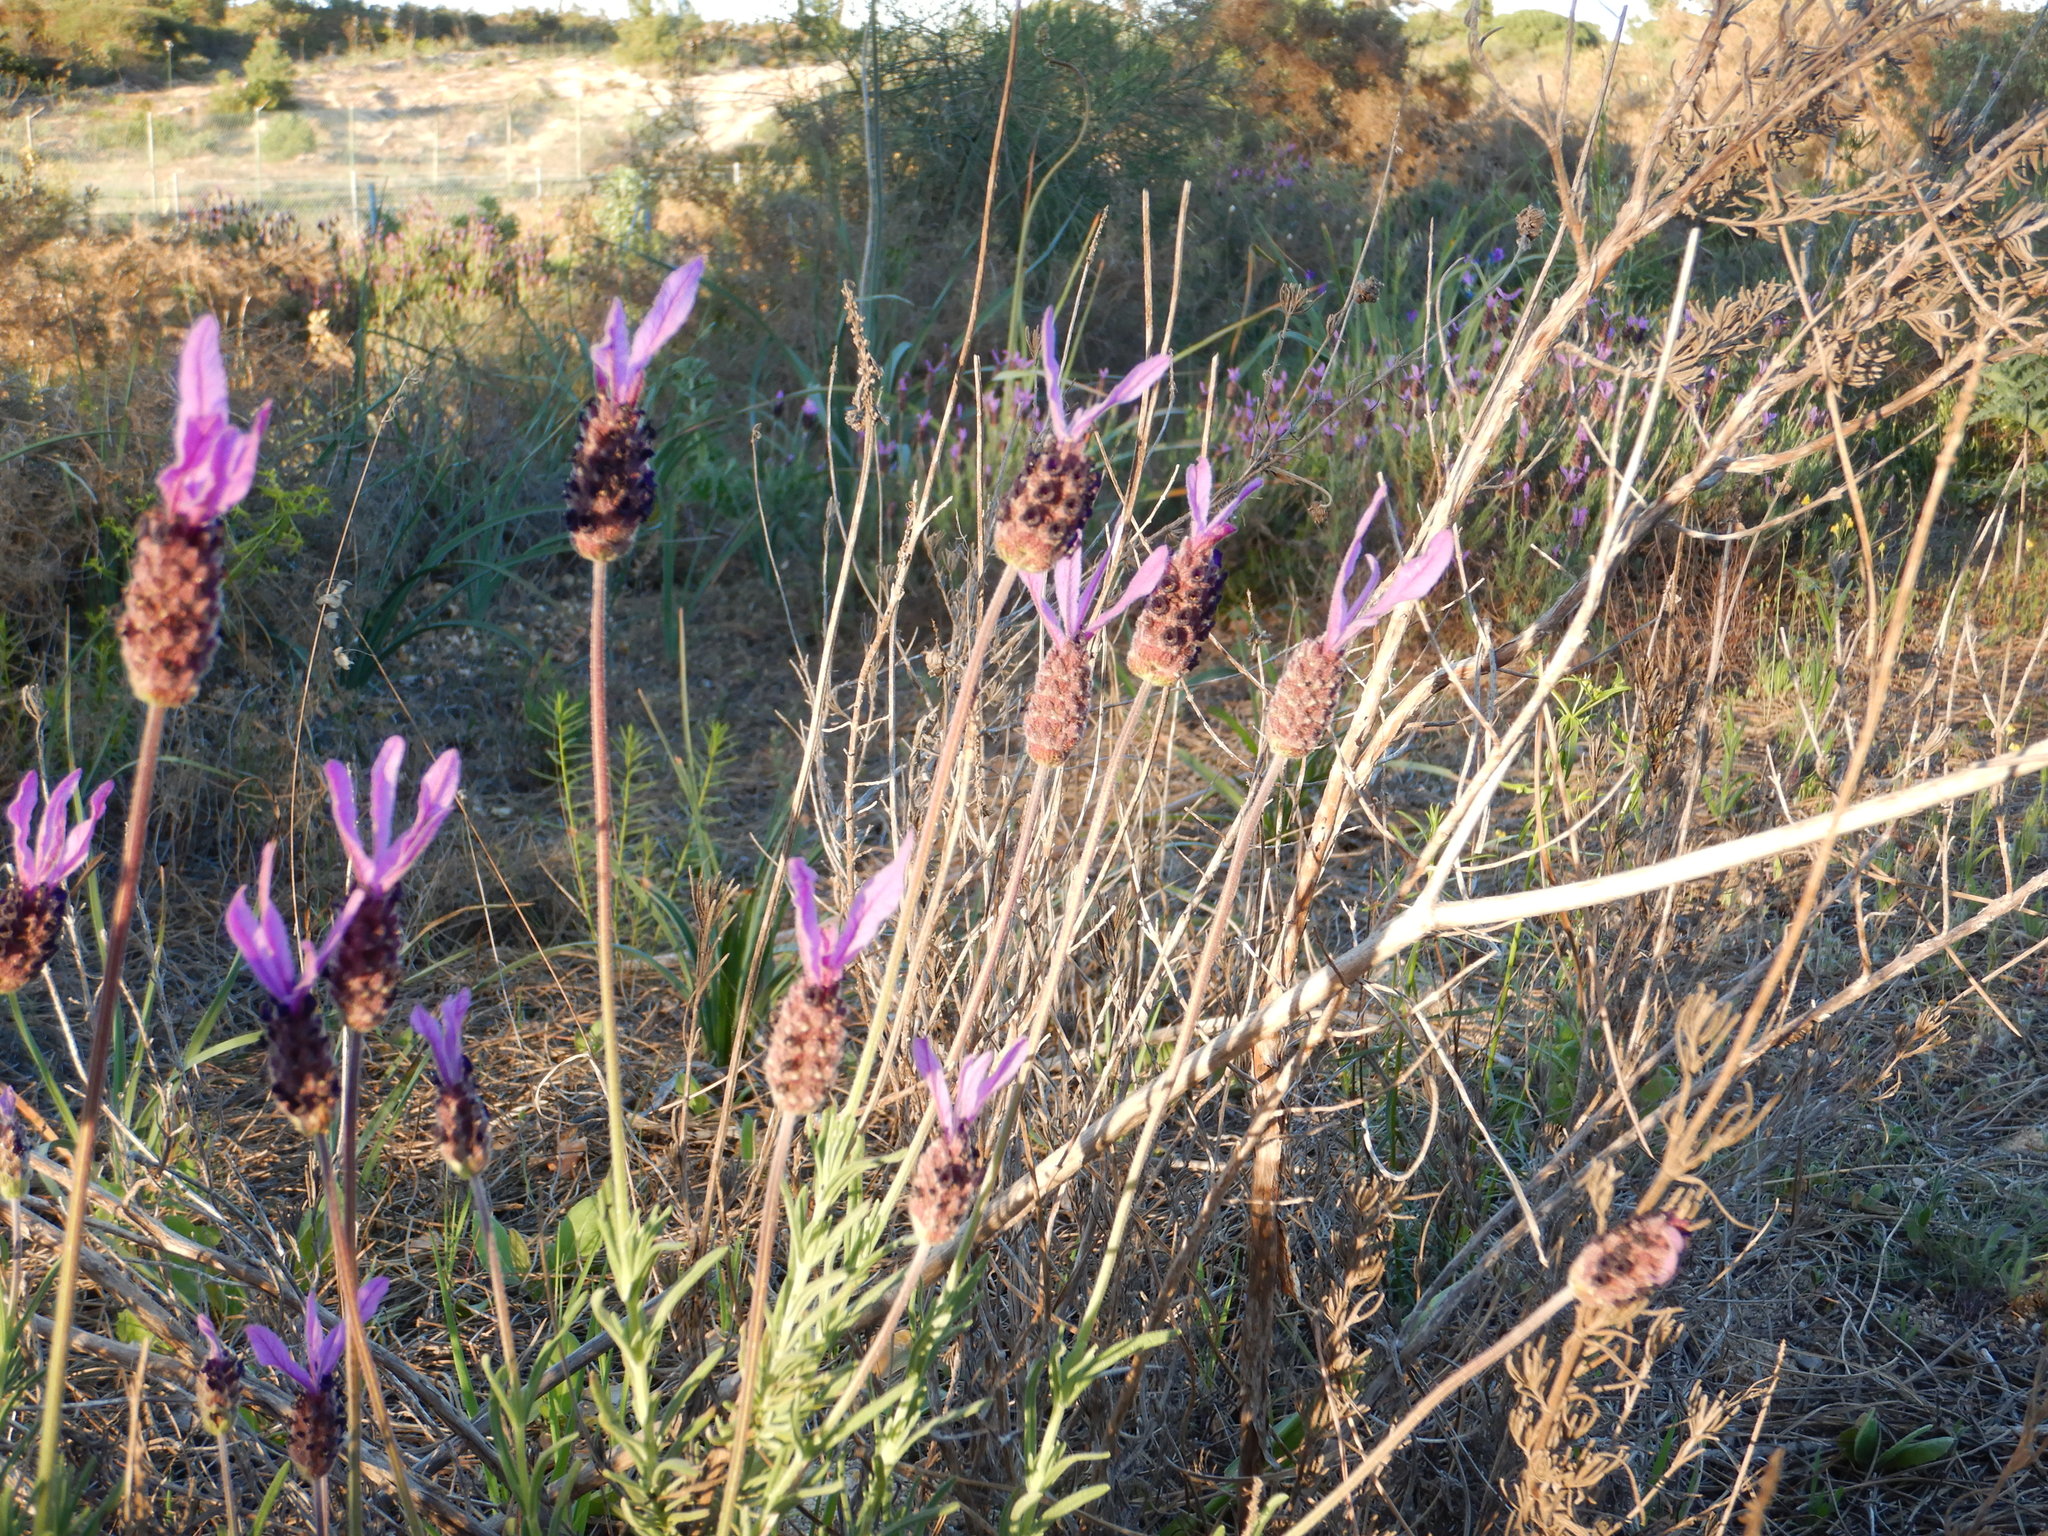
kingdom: Plantae
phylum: Tracheophyta
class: Magnoliopsida
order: Lamiales
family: Lamiaceae
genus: Lavandula
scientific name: Lavandula pedunculata
